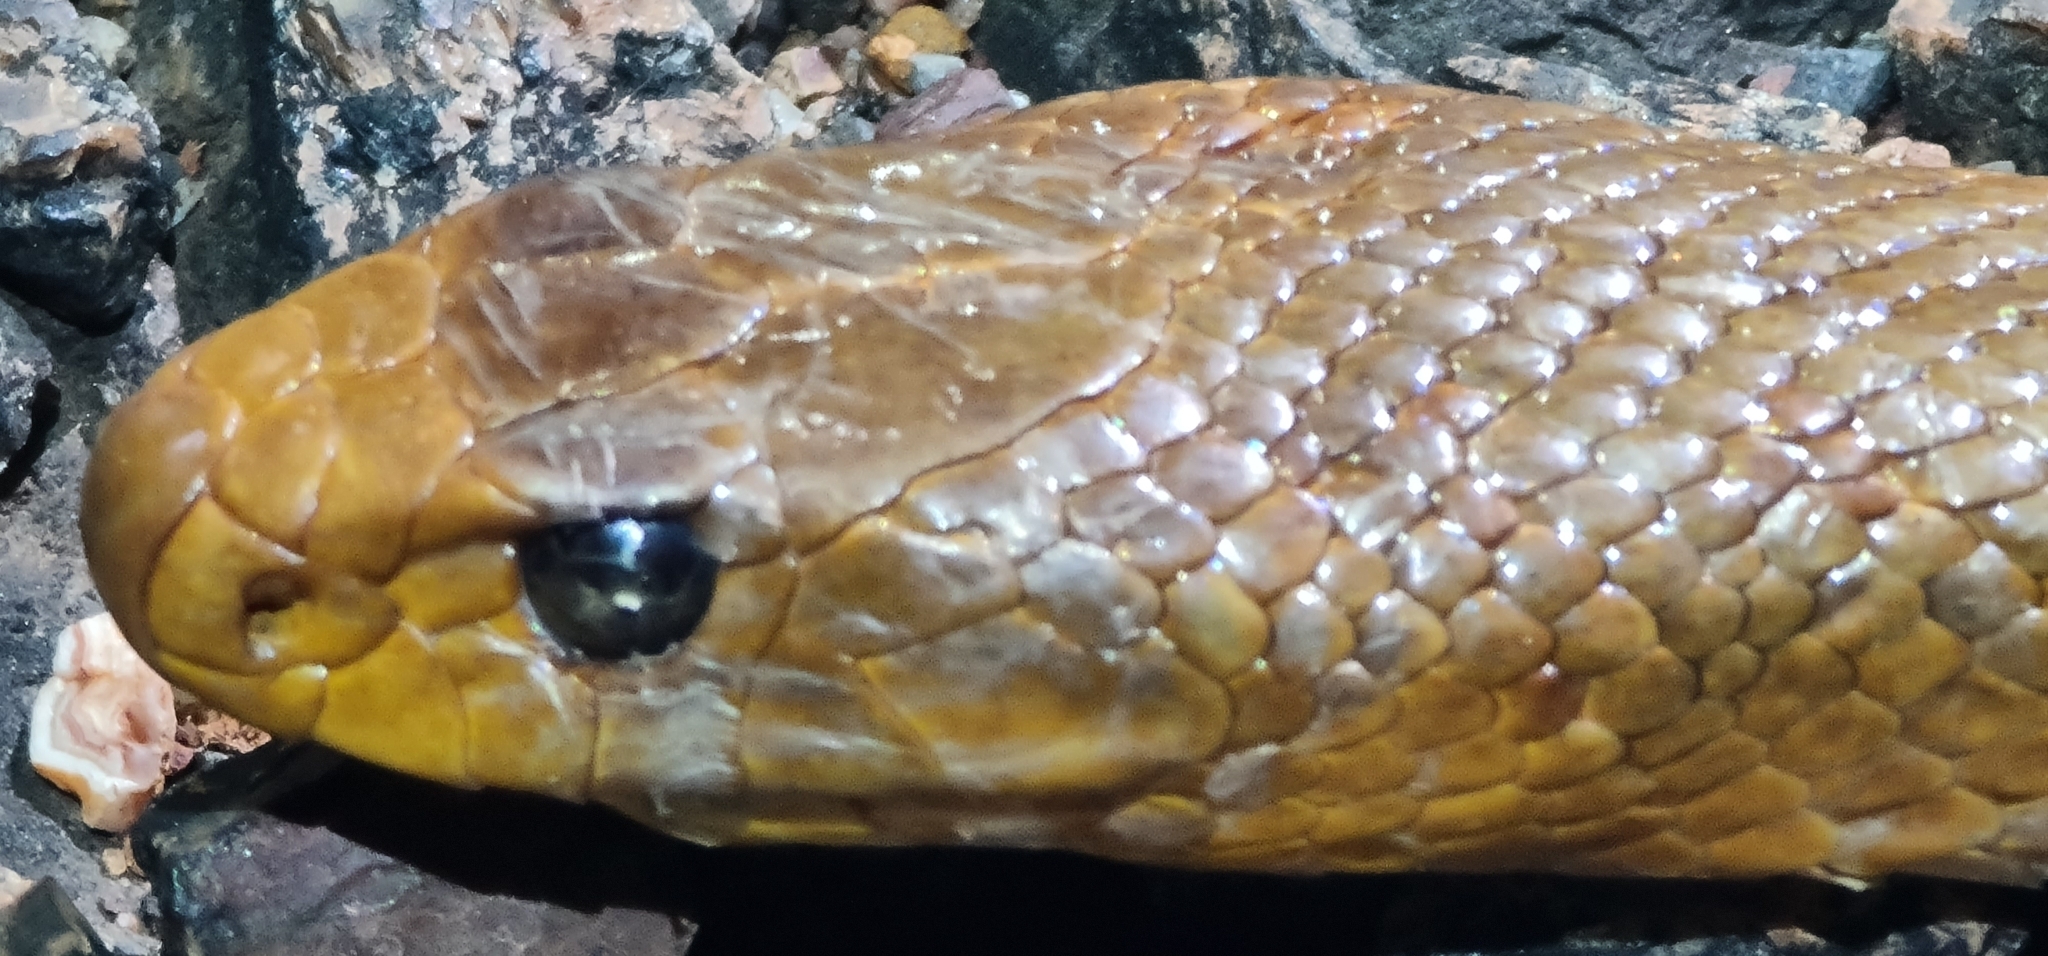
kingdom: Animalia
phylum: Chordata
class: Squamata
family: Elapidae
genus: Pseudonaja
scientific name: Pseudonaja nuchalis
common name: Gwardar
